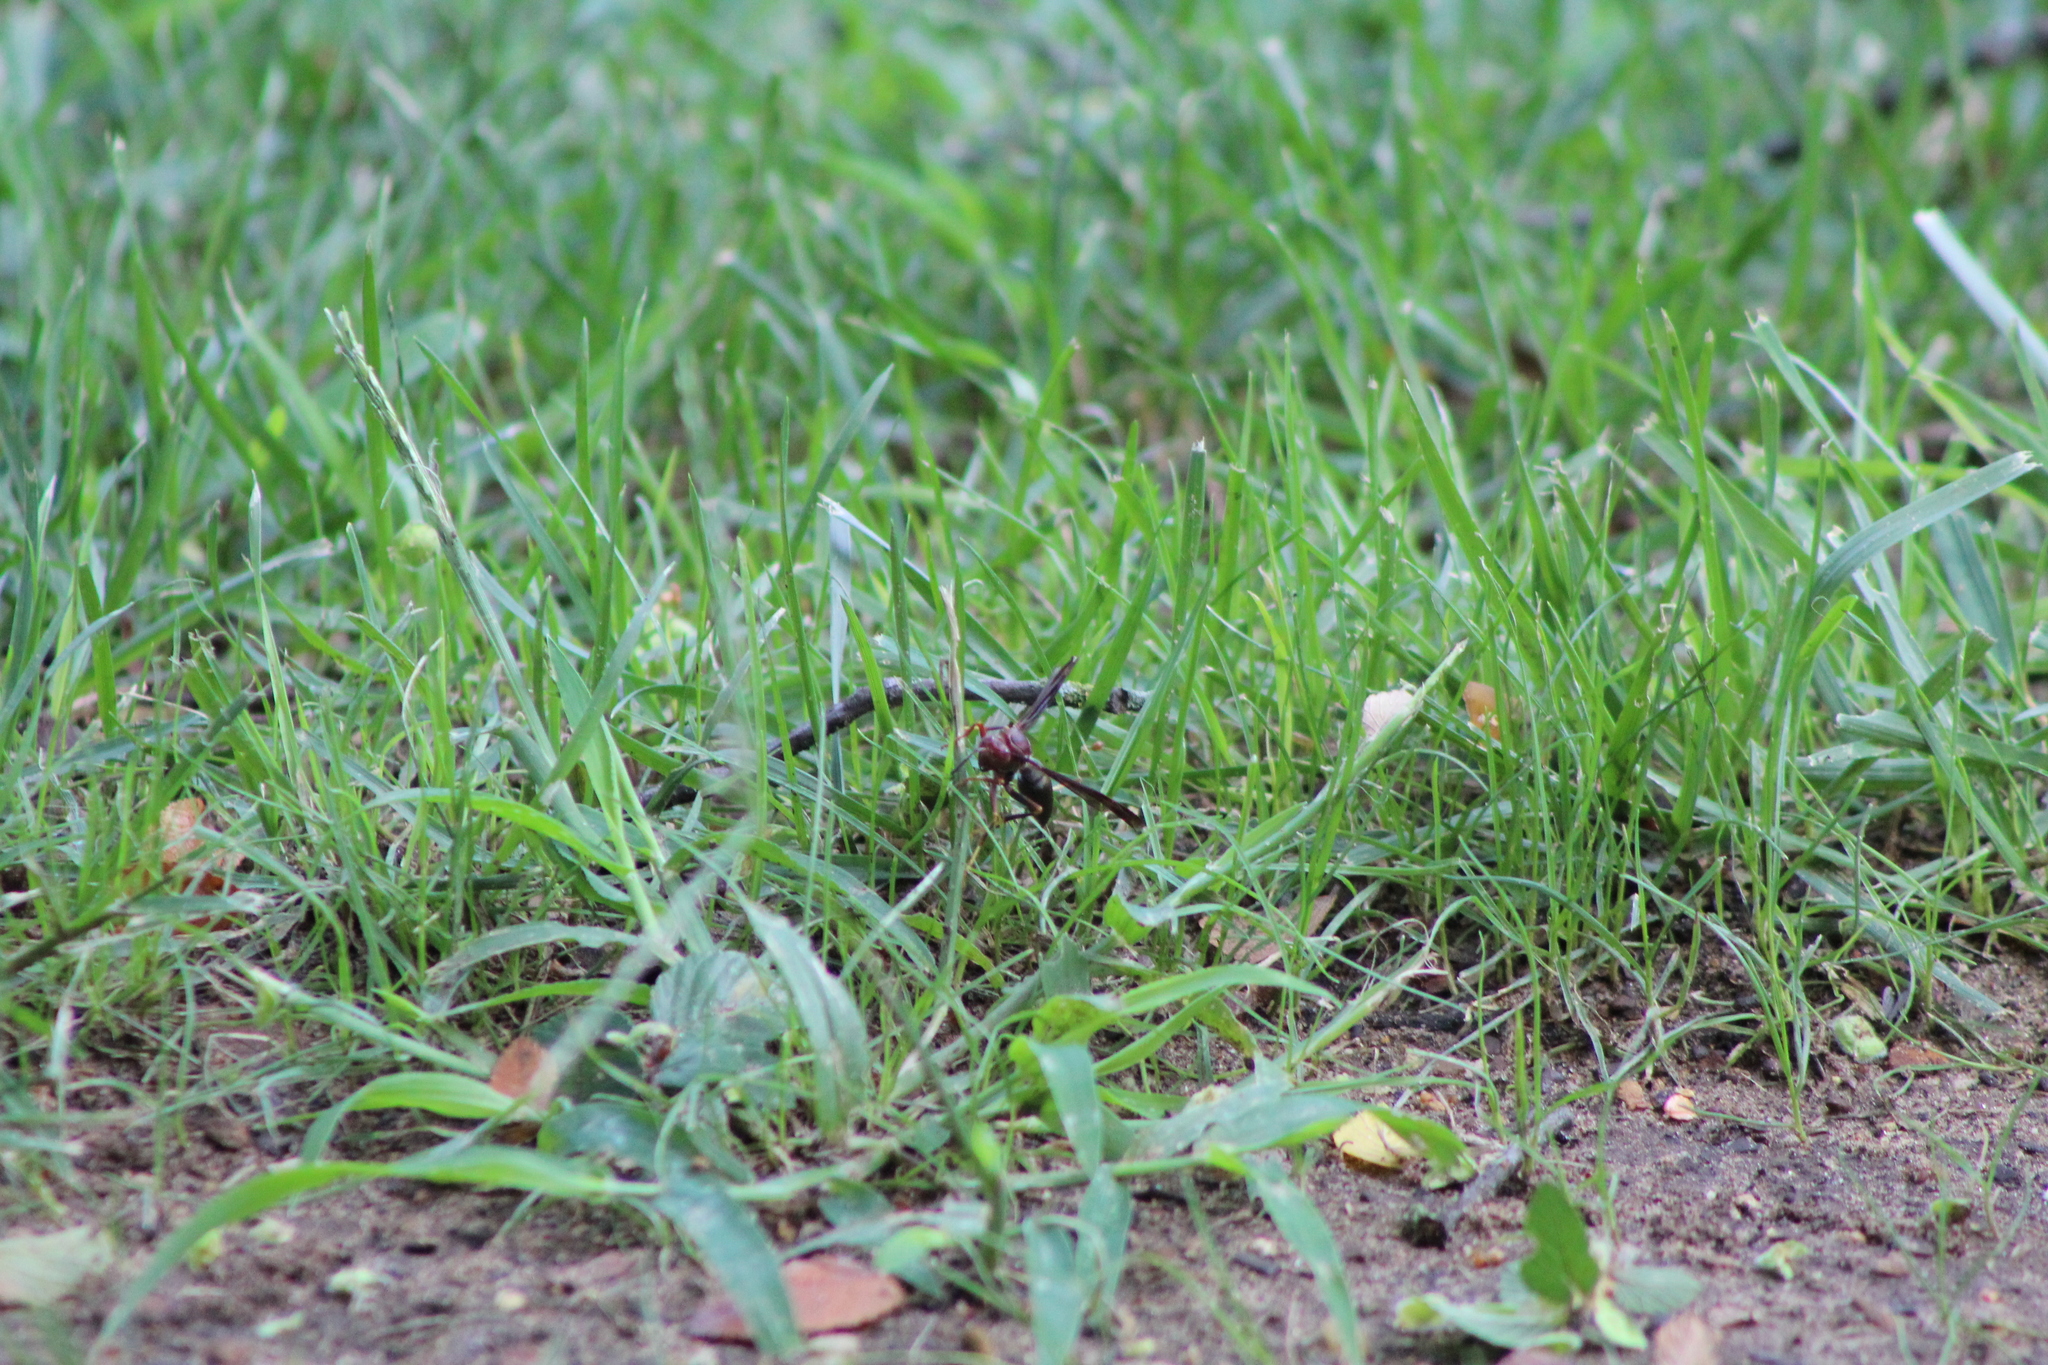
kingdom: Animalia
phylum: Arthropoda
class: Insecta
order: Hymenoptera
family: Eumenidae
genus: Polistes
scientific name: Polistes metricus
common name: Metric paper wasp
